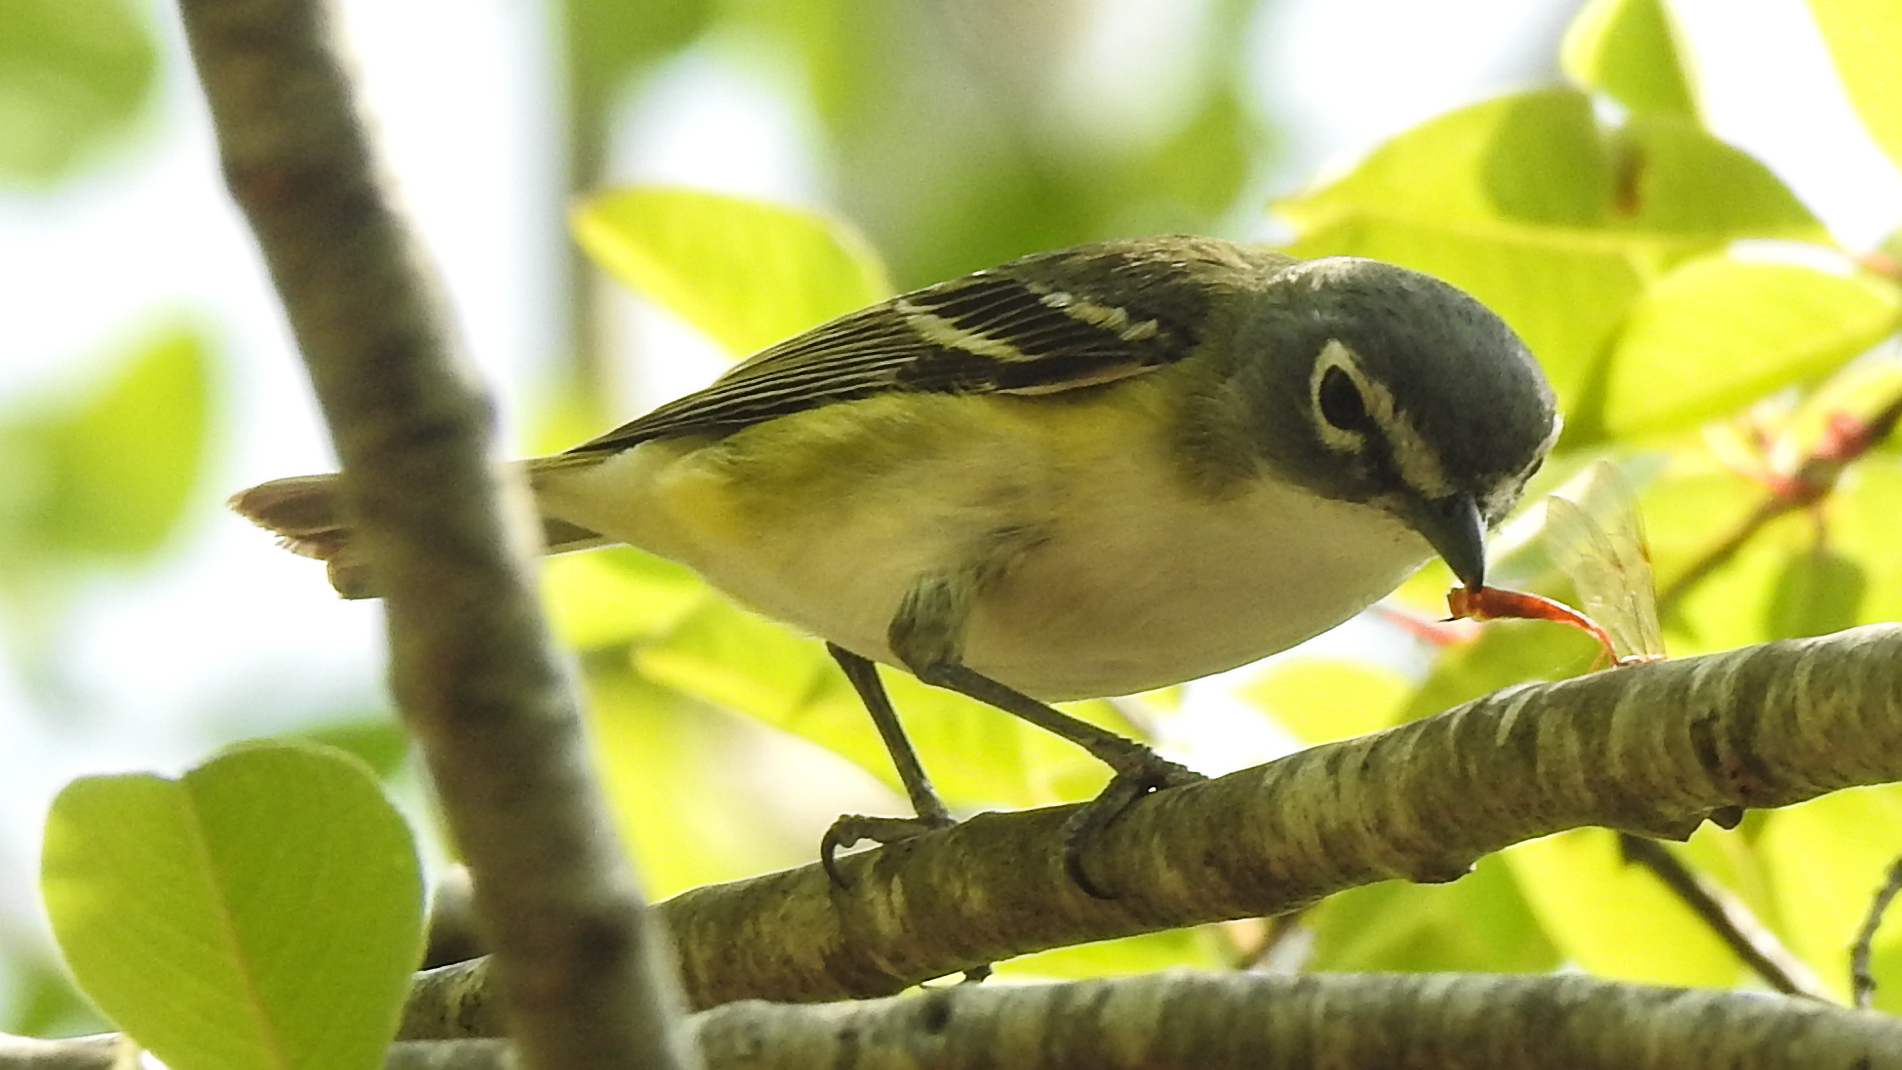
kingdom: Animalia
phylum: Chordata
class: Aves
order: Passeriformes
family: Vireonidae
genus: Vireo
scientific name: Vireo solitarius
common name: Blue-headed vireo
